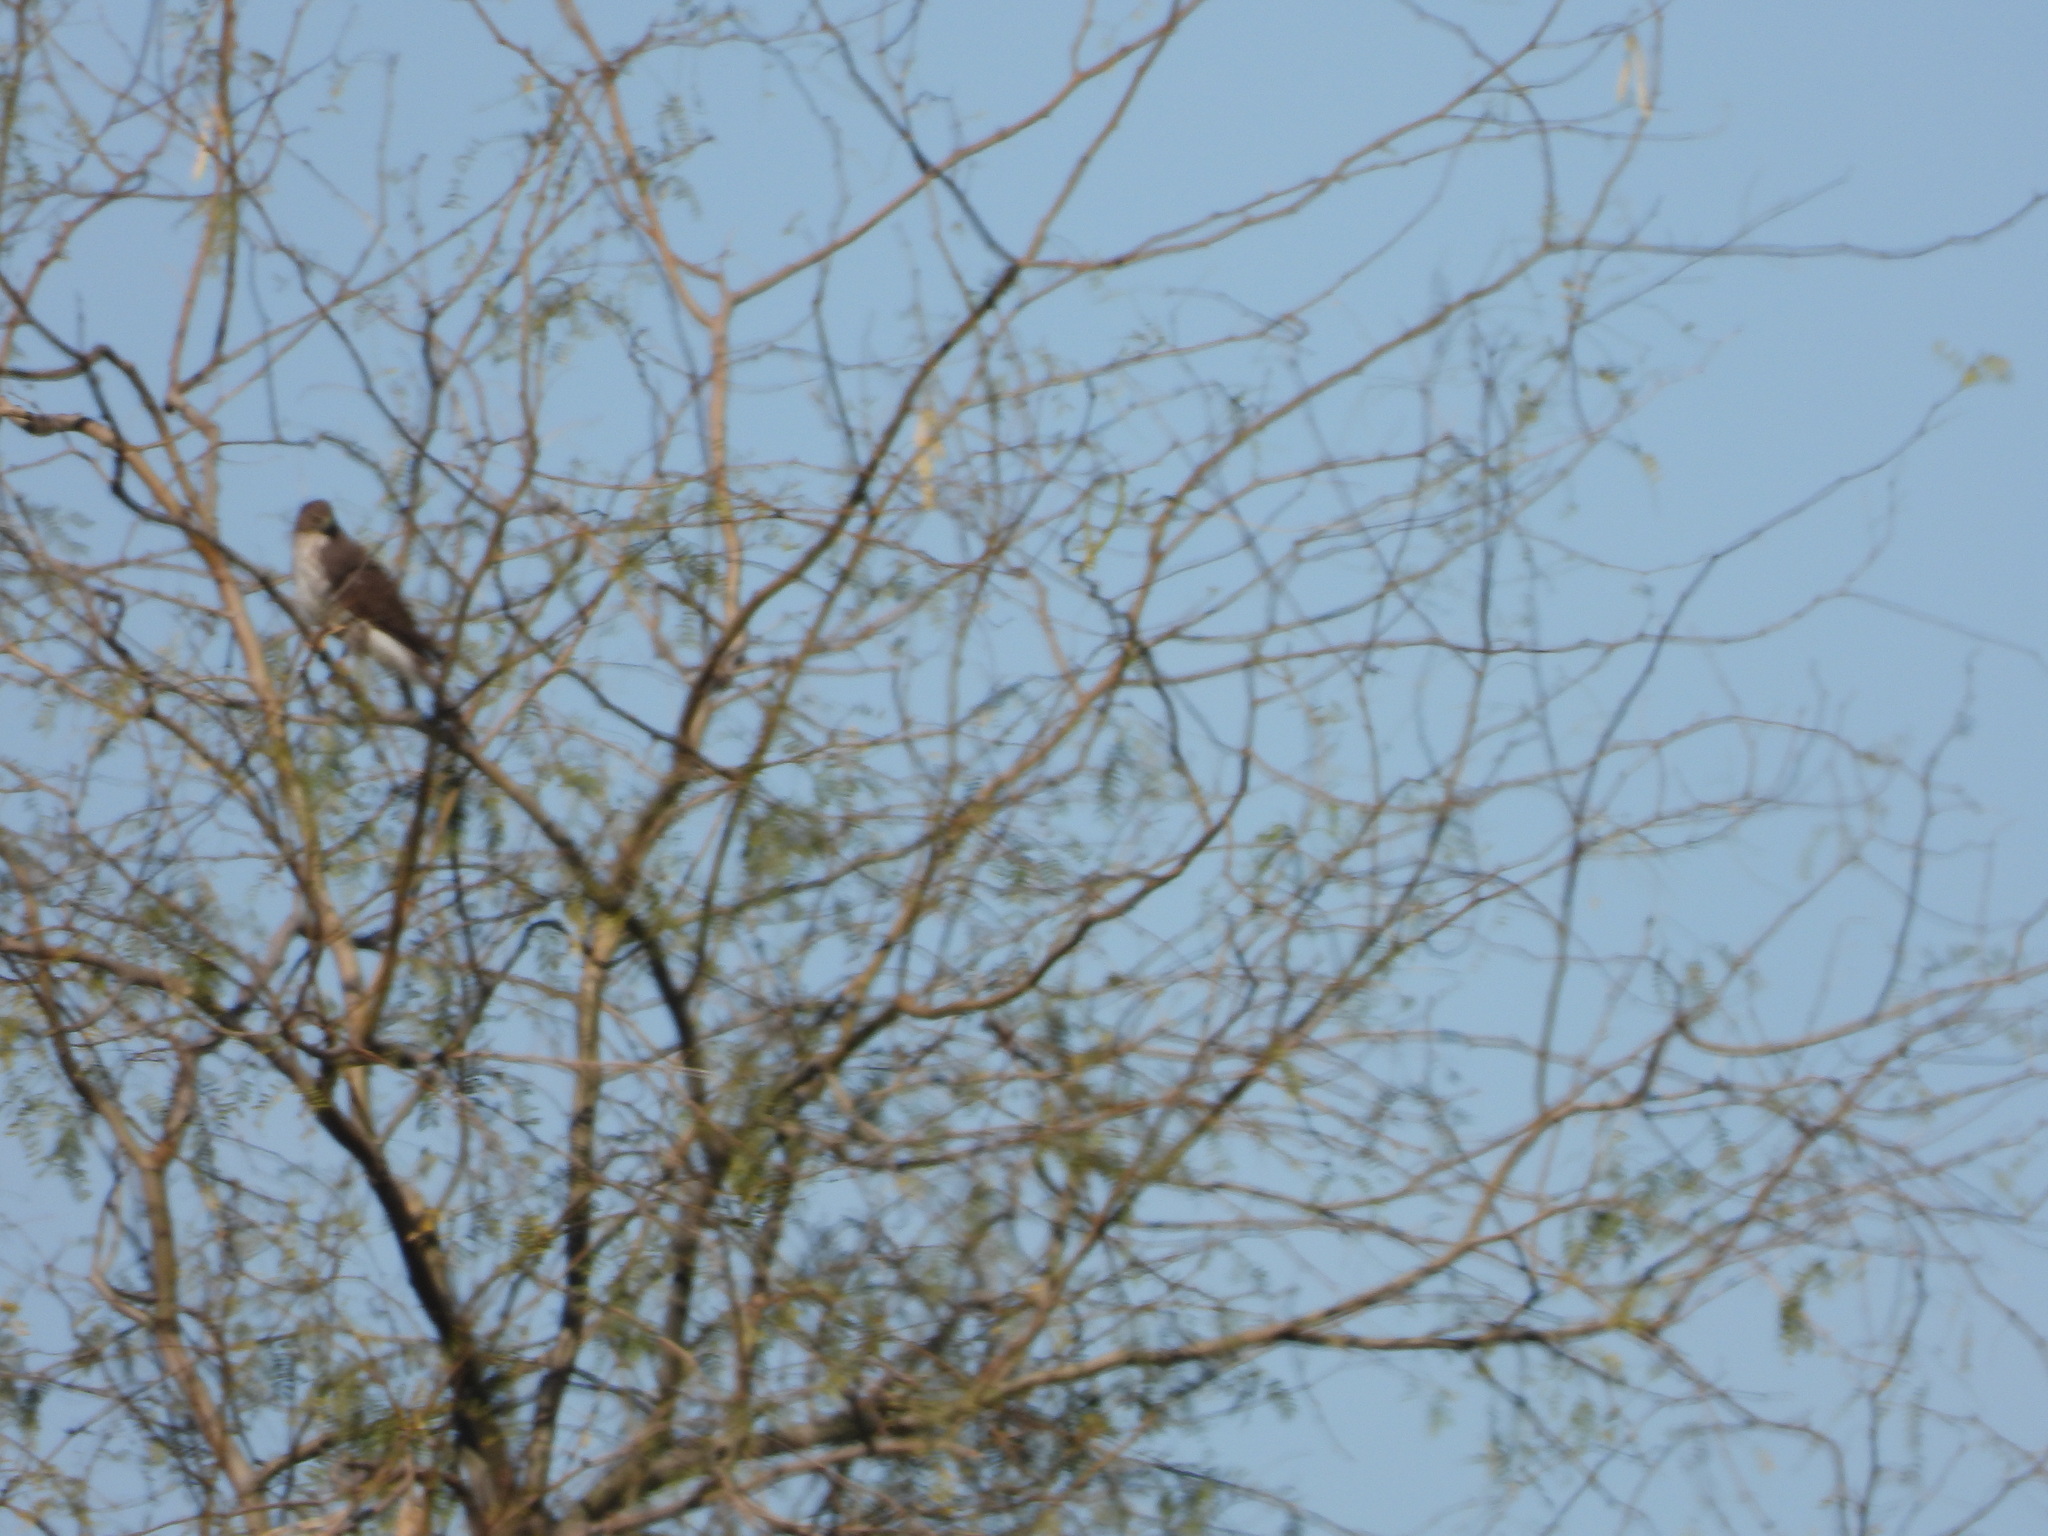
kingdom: Animalia
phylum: Chordata
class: Aves
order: Accipitriformes
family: Accipitridae
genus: Accipiter
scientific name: Accipiter cooperii
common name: Cooper's hawk
